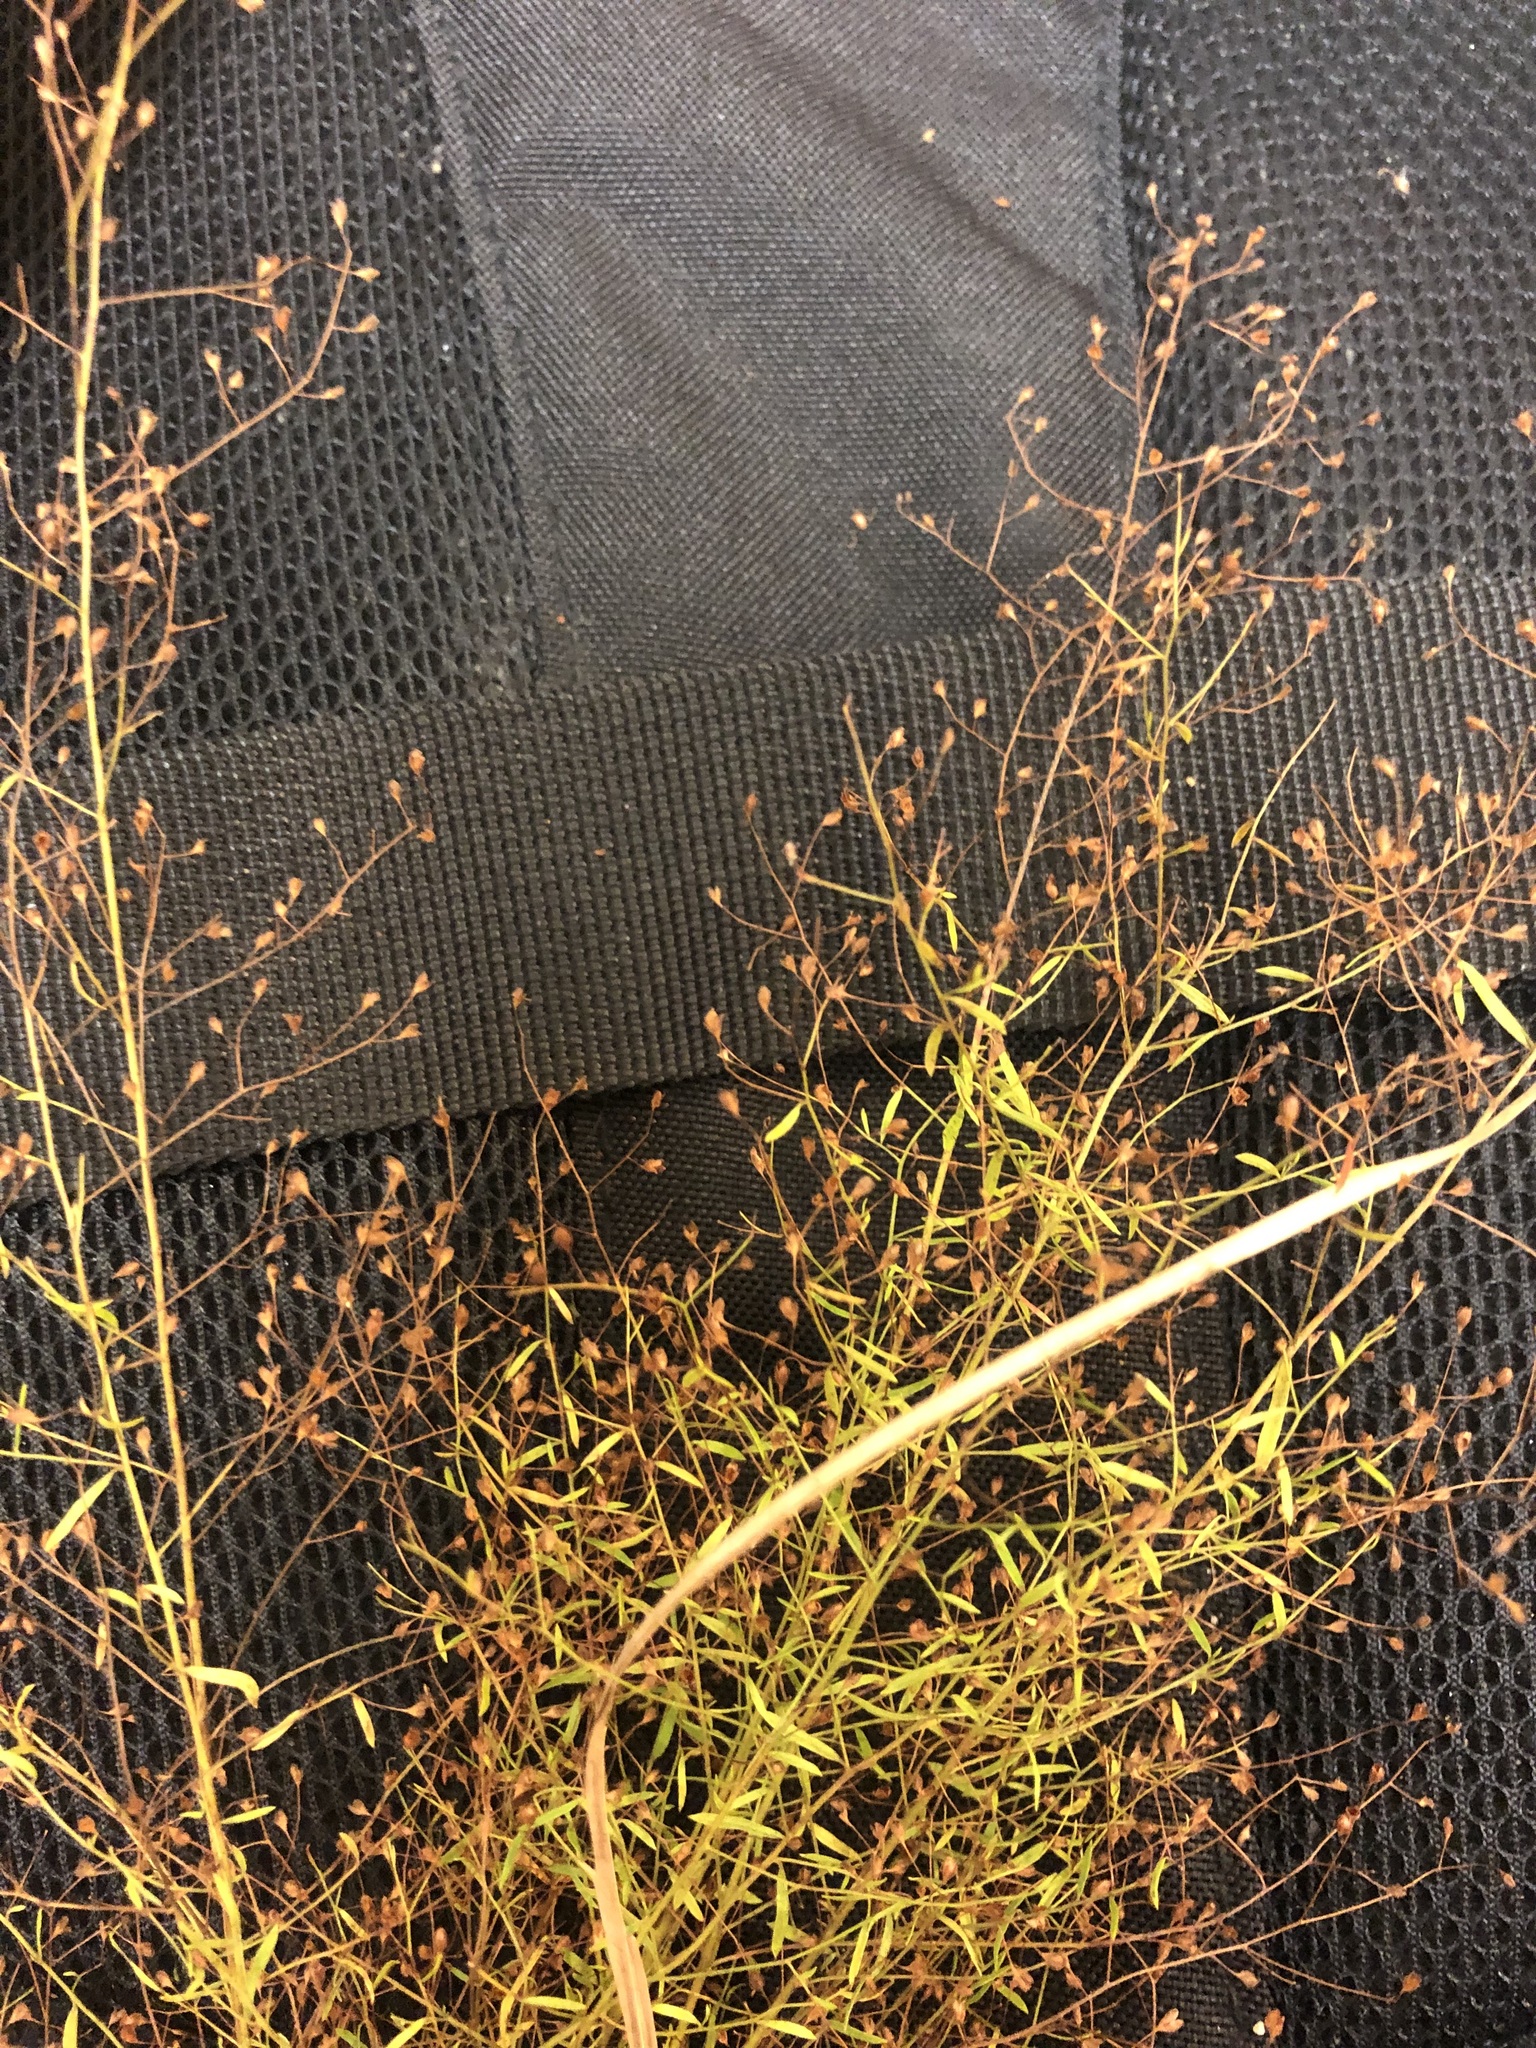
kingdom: Plantae
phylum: Tracheophyta
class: Magnoliopsida
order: Malvales
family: Cistaceae
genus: Lechea
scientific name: Lechea racemulosa
